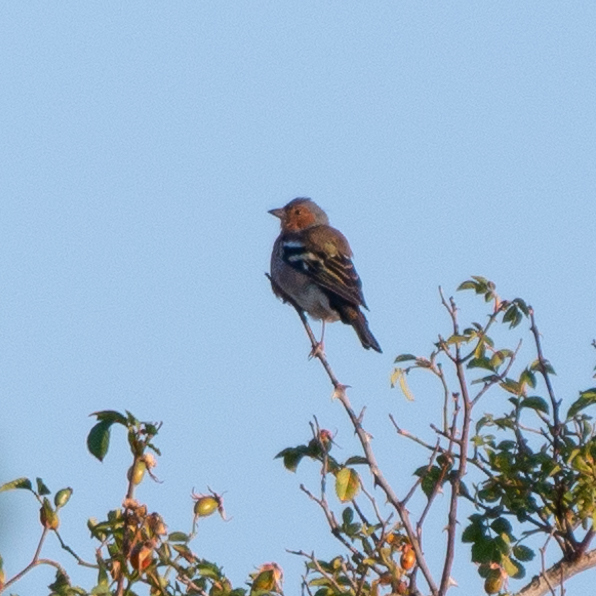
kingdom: Animalia
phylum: Chordata
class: Aves
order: Passeriformes
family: Fringillidae
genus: Fringilla
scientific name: Fringilla coelebs
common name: Common chaffinch
